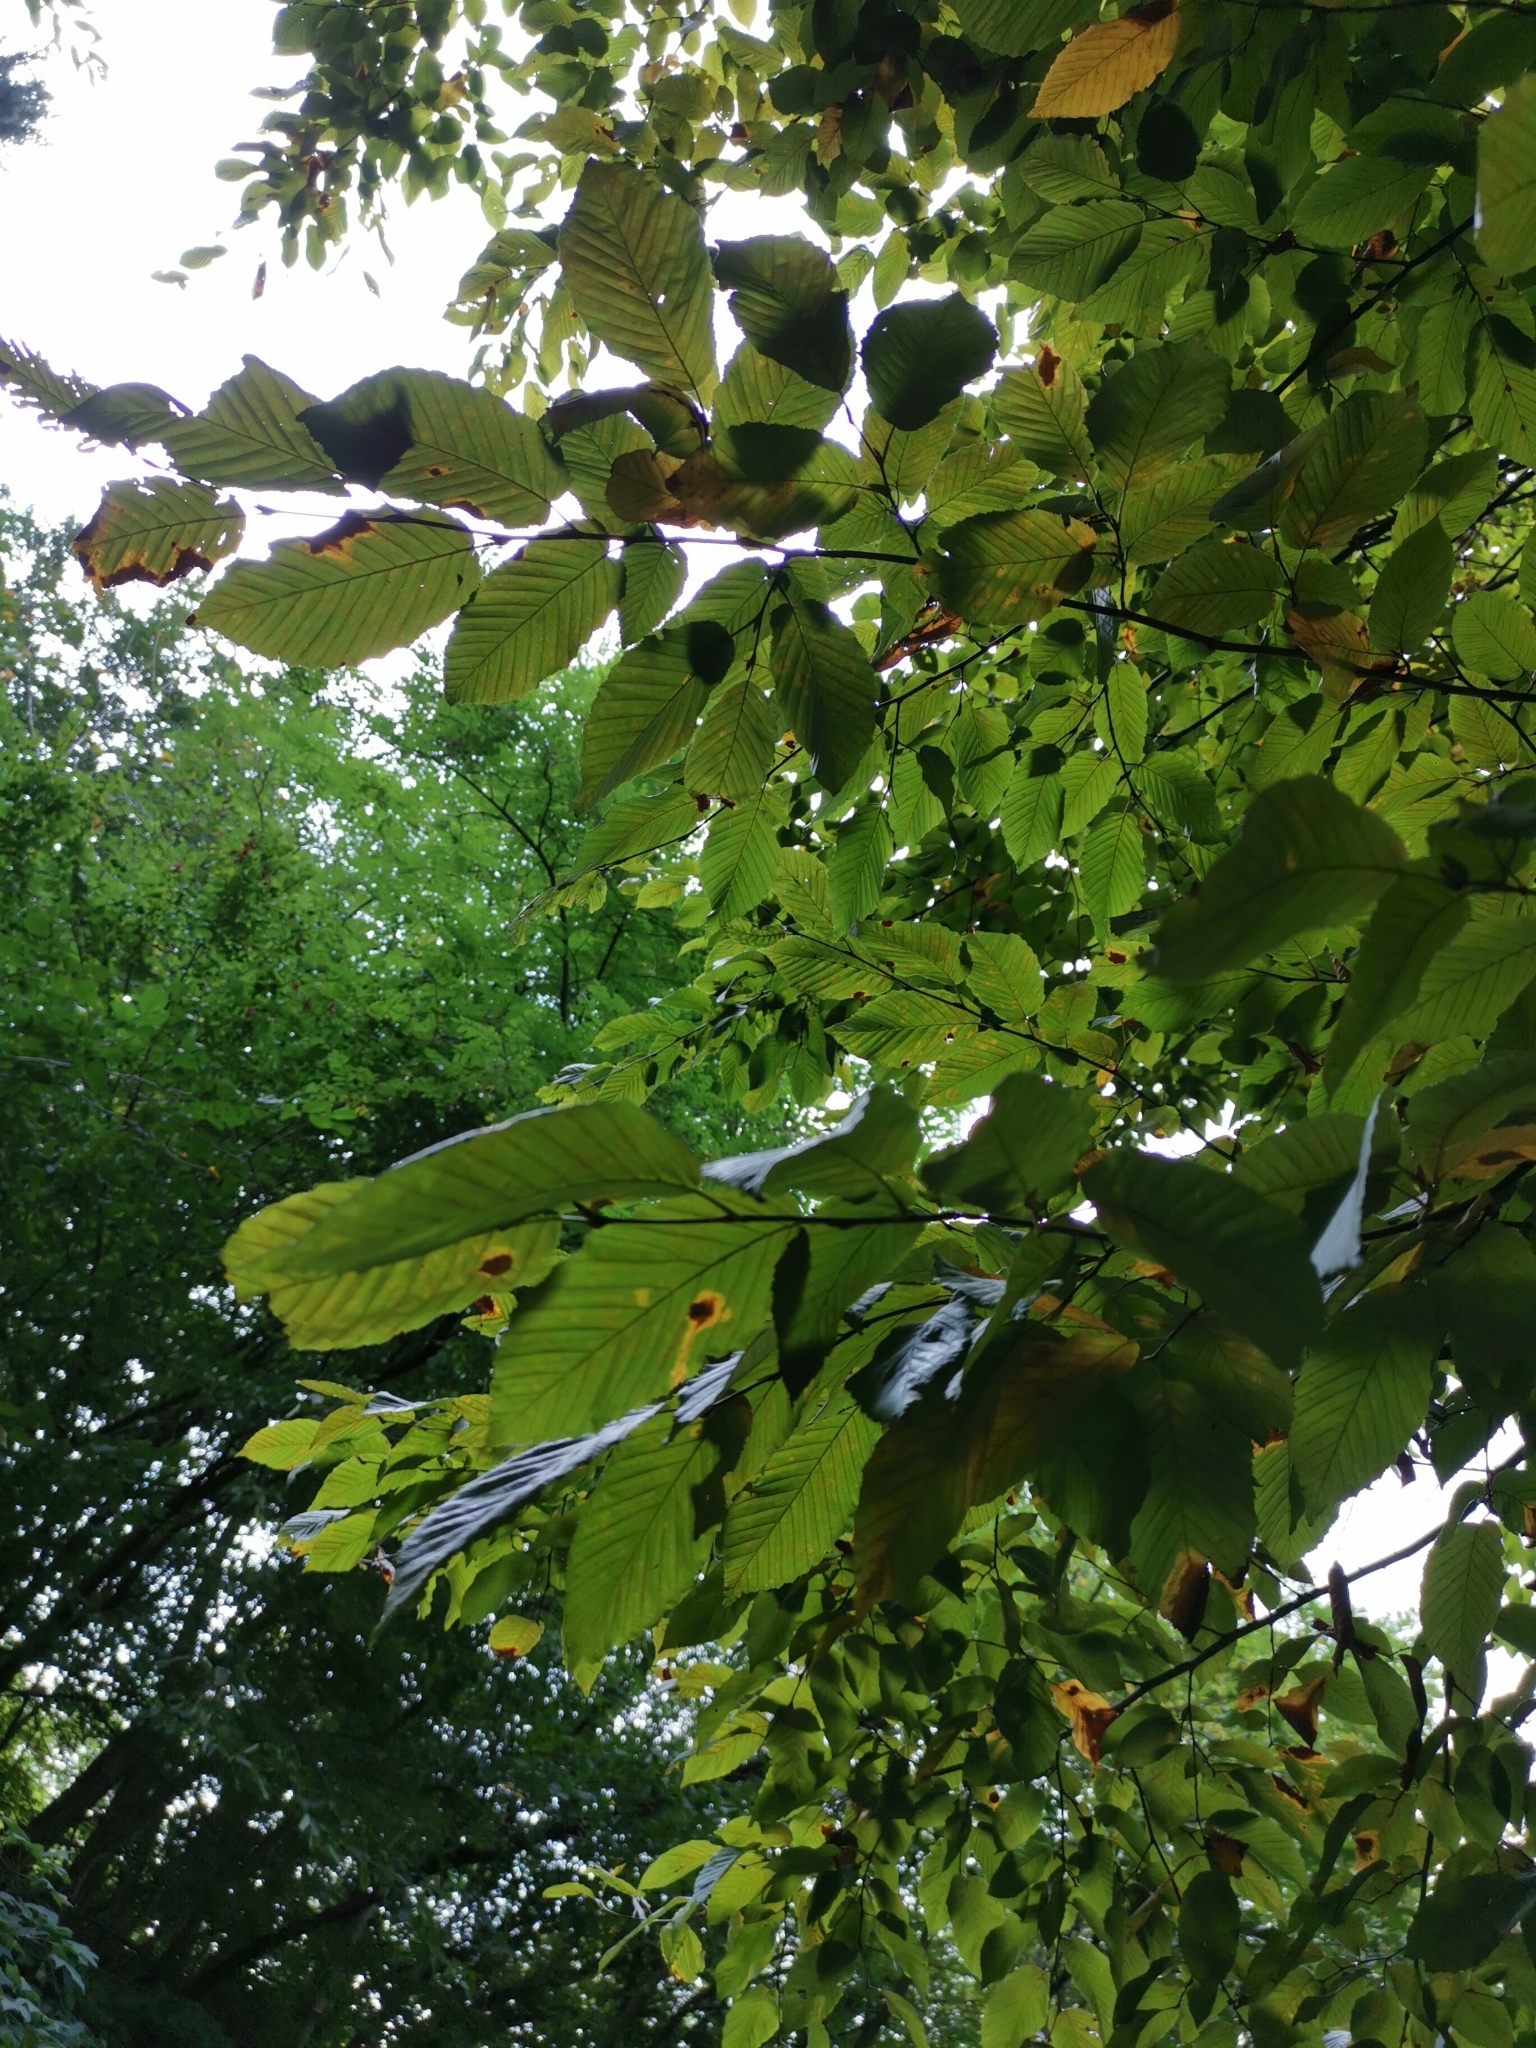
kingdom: Plantae
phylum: Tracheophyta
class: Magnoliopsida
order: Fagales
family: Betulaceae
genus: Carpinus
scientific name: Carpinus betulus
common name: Hornbeam
